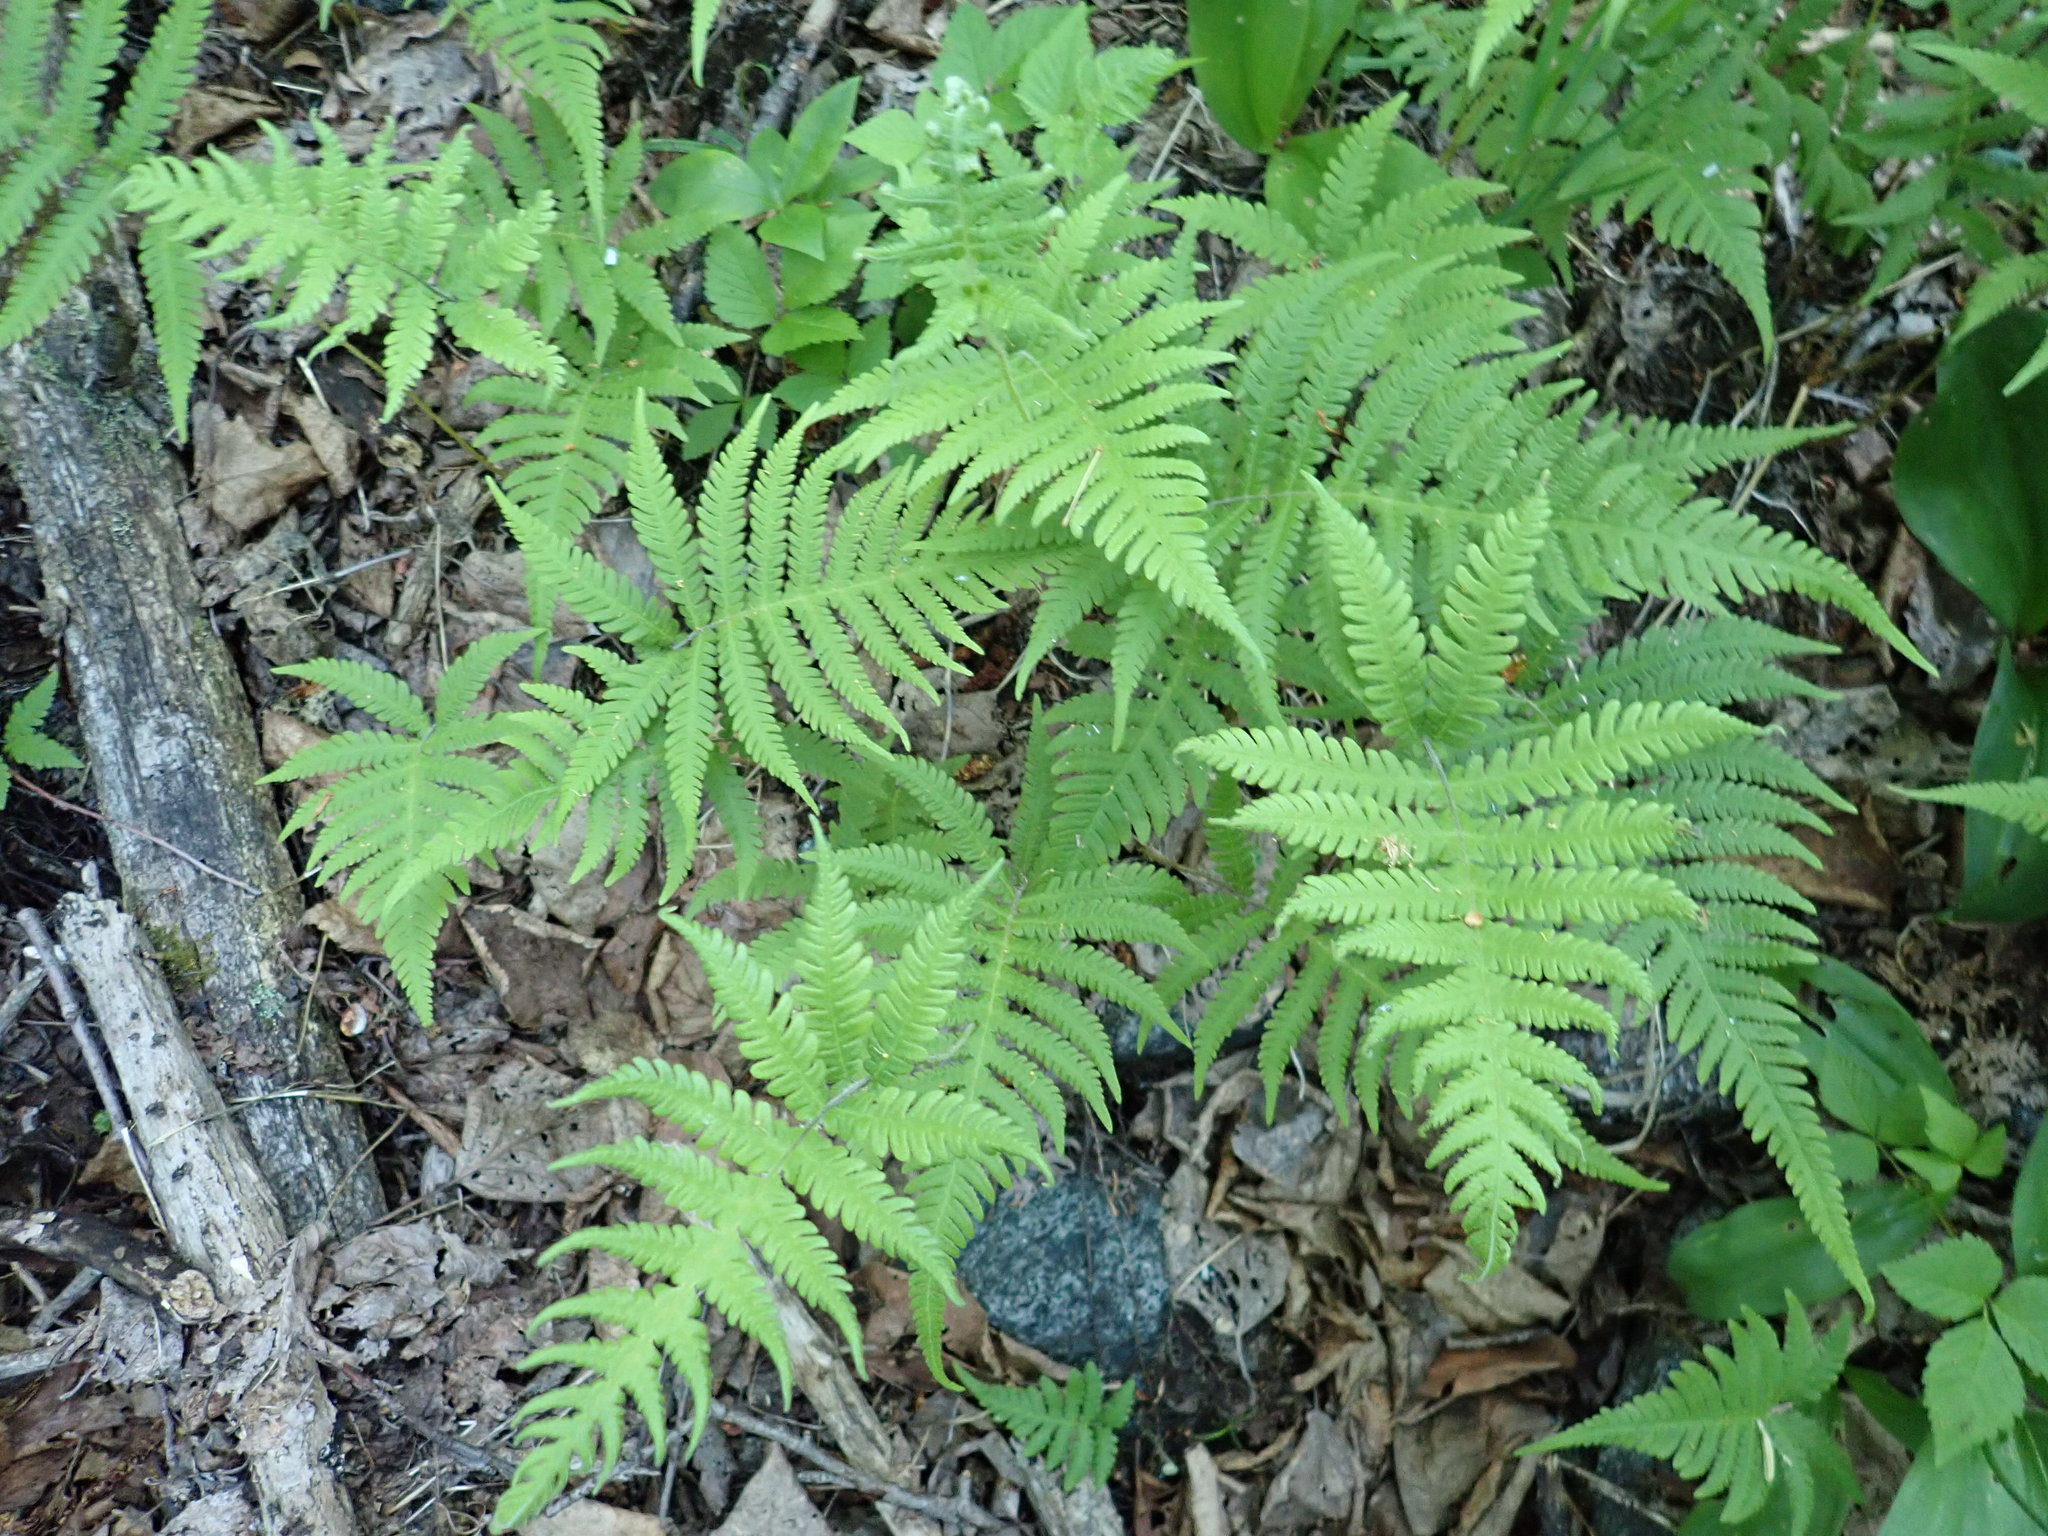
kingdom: Plantae
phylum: Tracheophyta
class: Polypodiopsida
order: Polypodiales
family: Thelypteridaceae
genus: Phegopteris
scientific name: Phegopteris connectilis
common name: Beech fern
